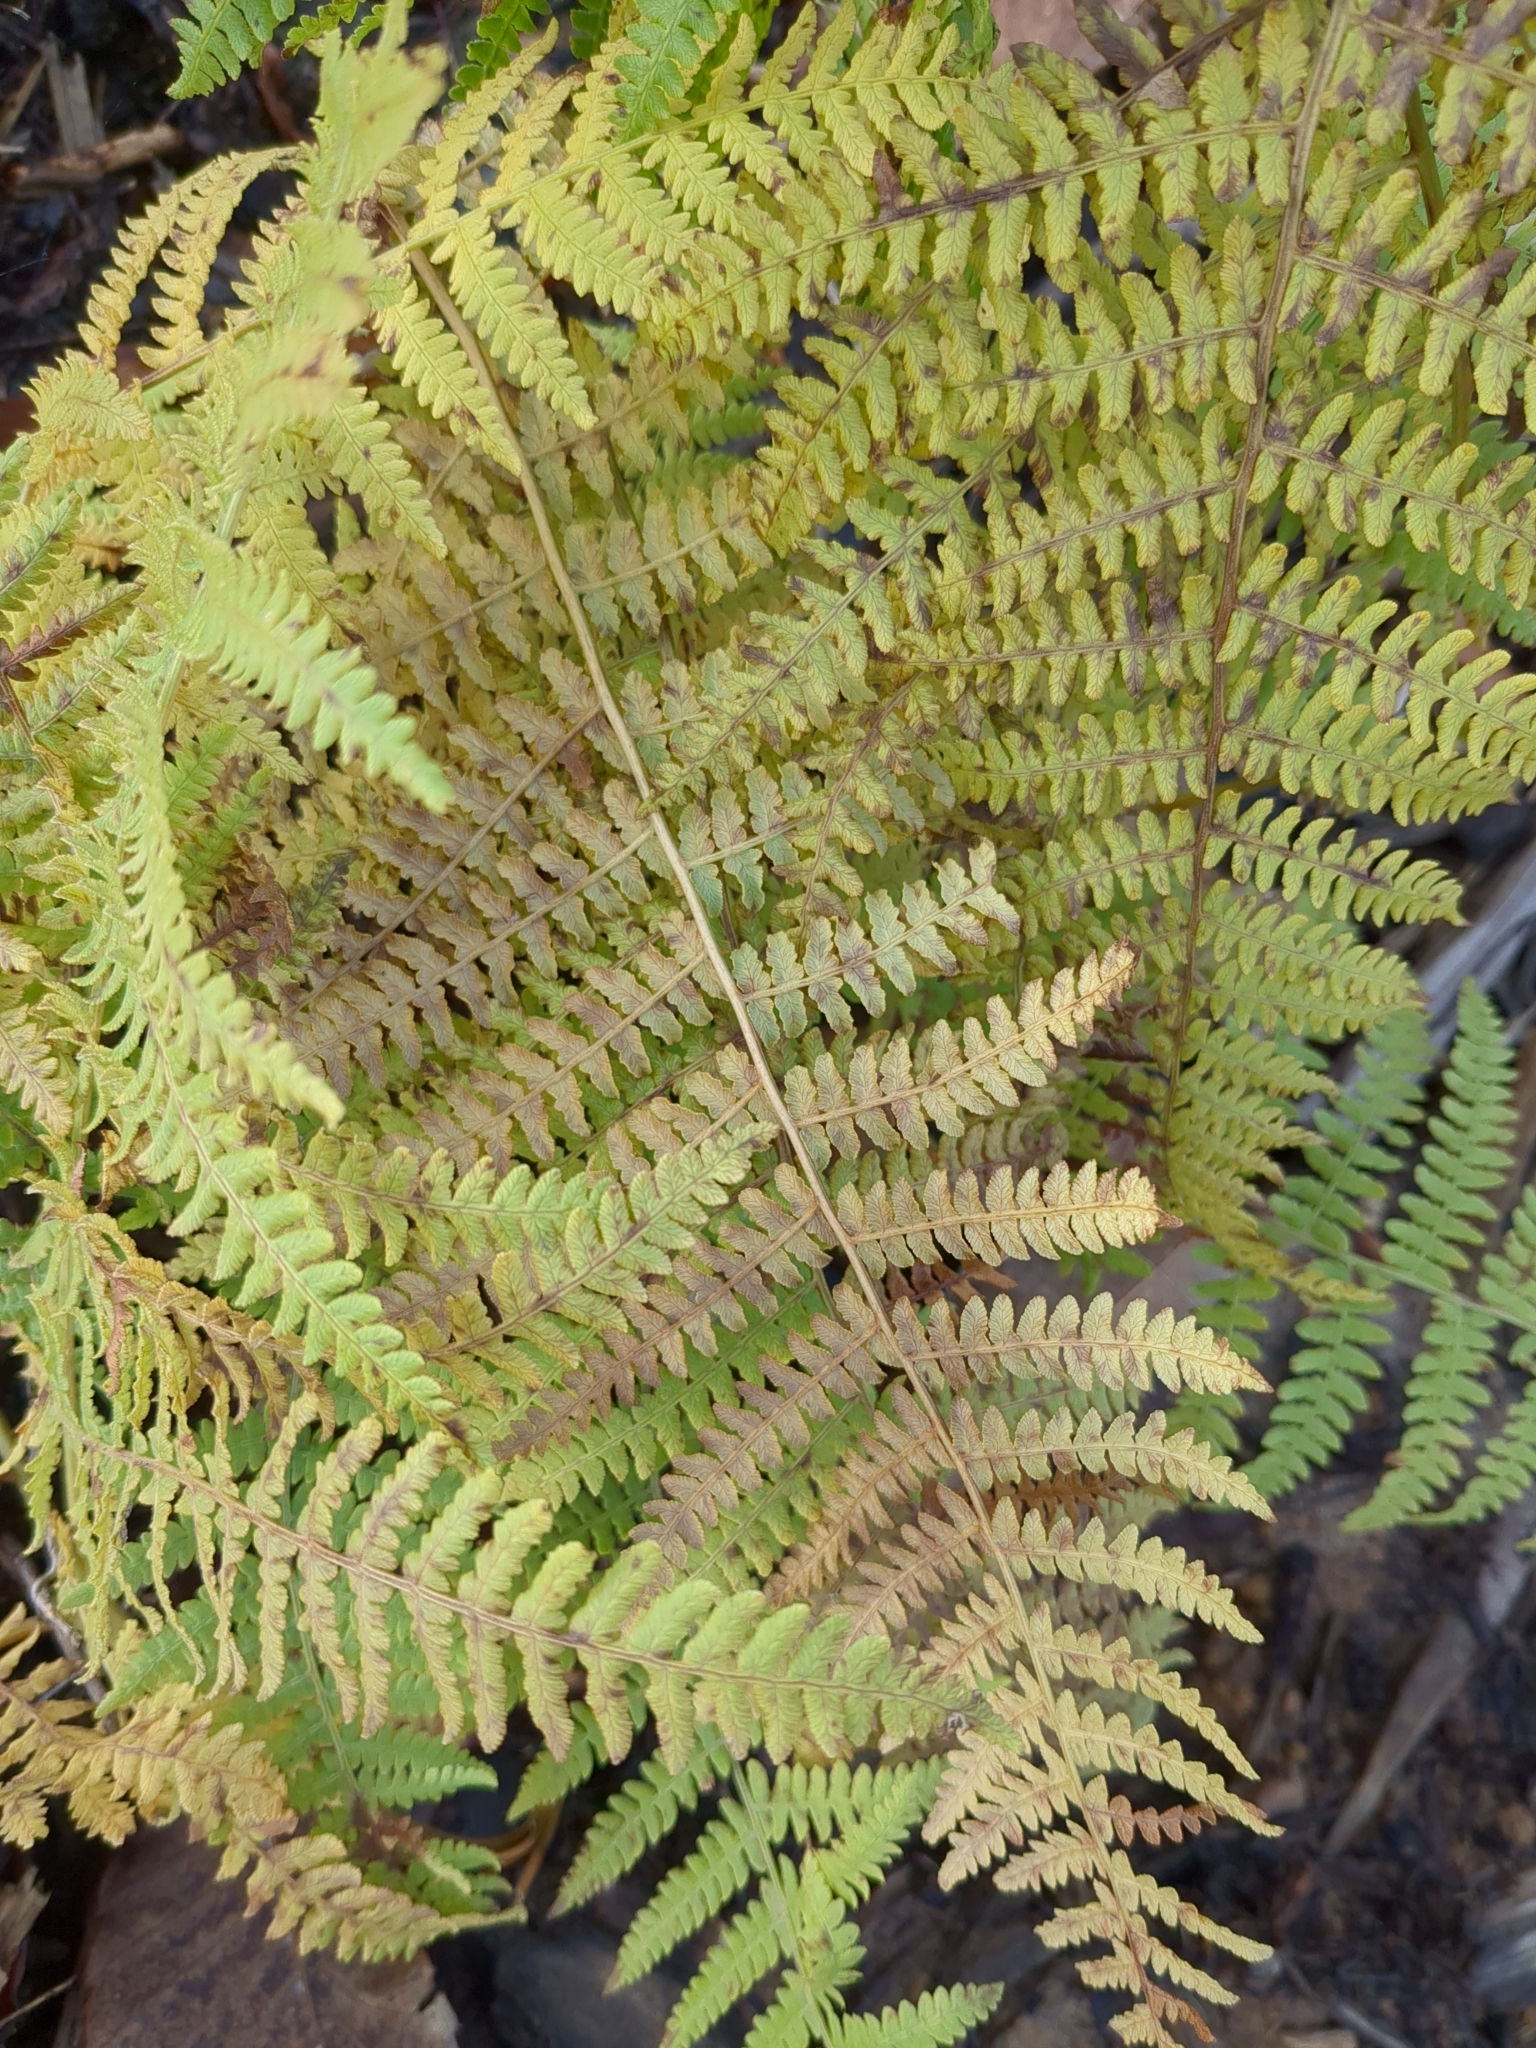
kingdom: Plantae
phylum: Tracheophyta
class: Polypodiopsida
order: Polypodiales
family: Dennstaedtiaceae
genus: Pteridium
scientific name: Pteridium aquilinum
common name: Bracken
